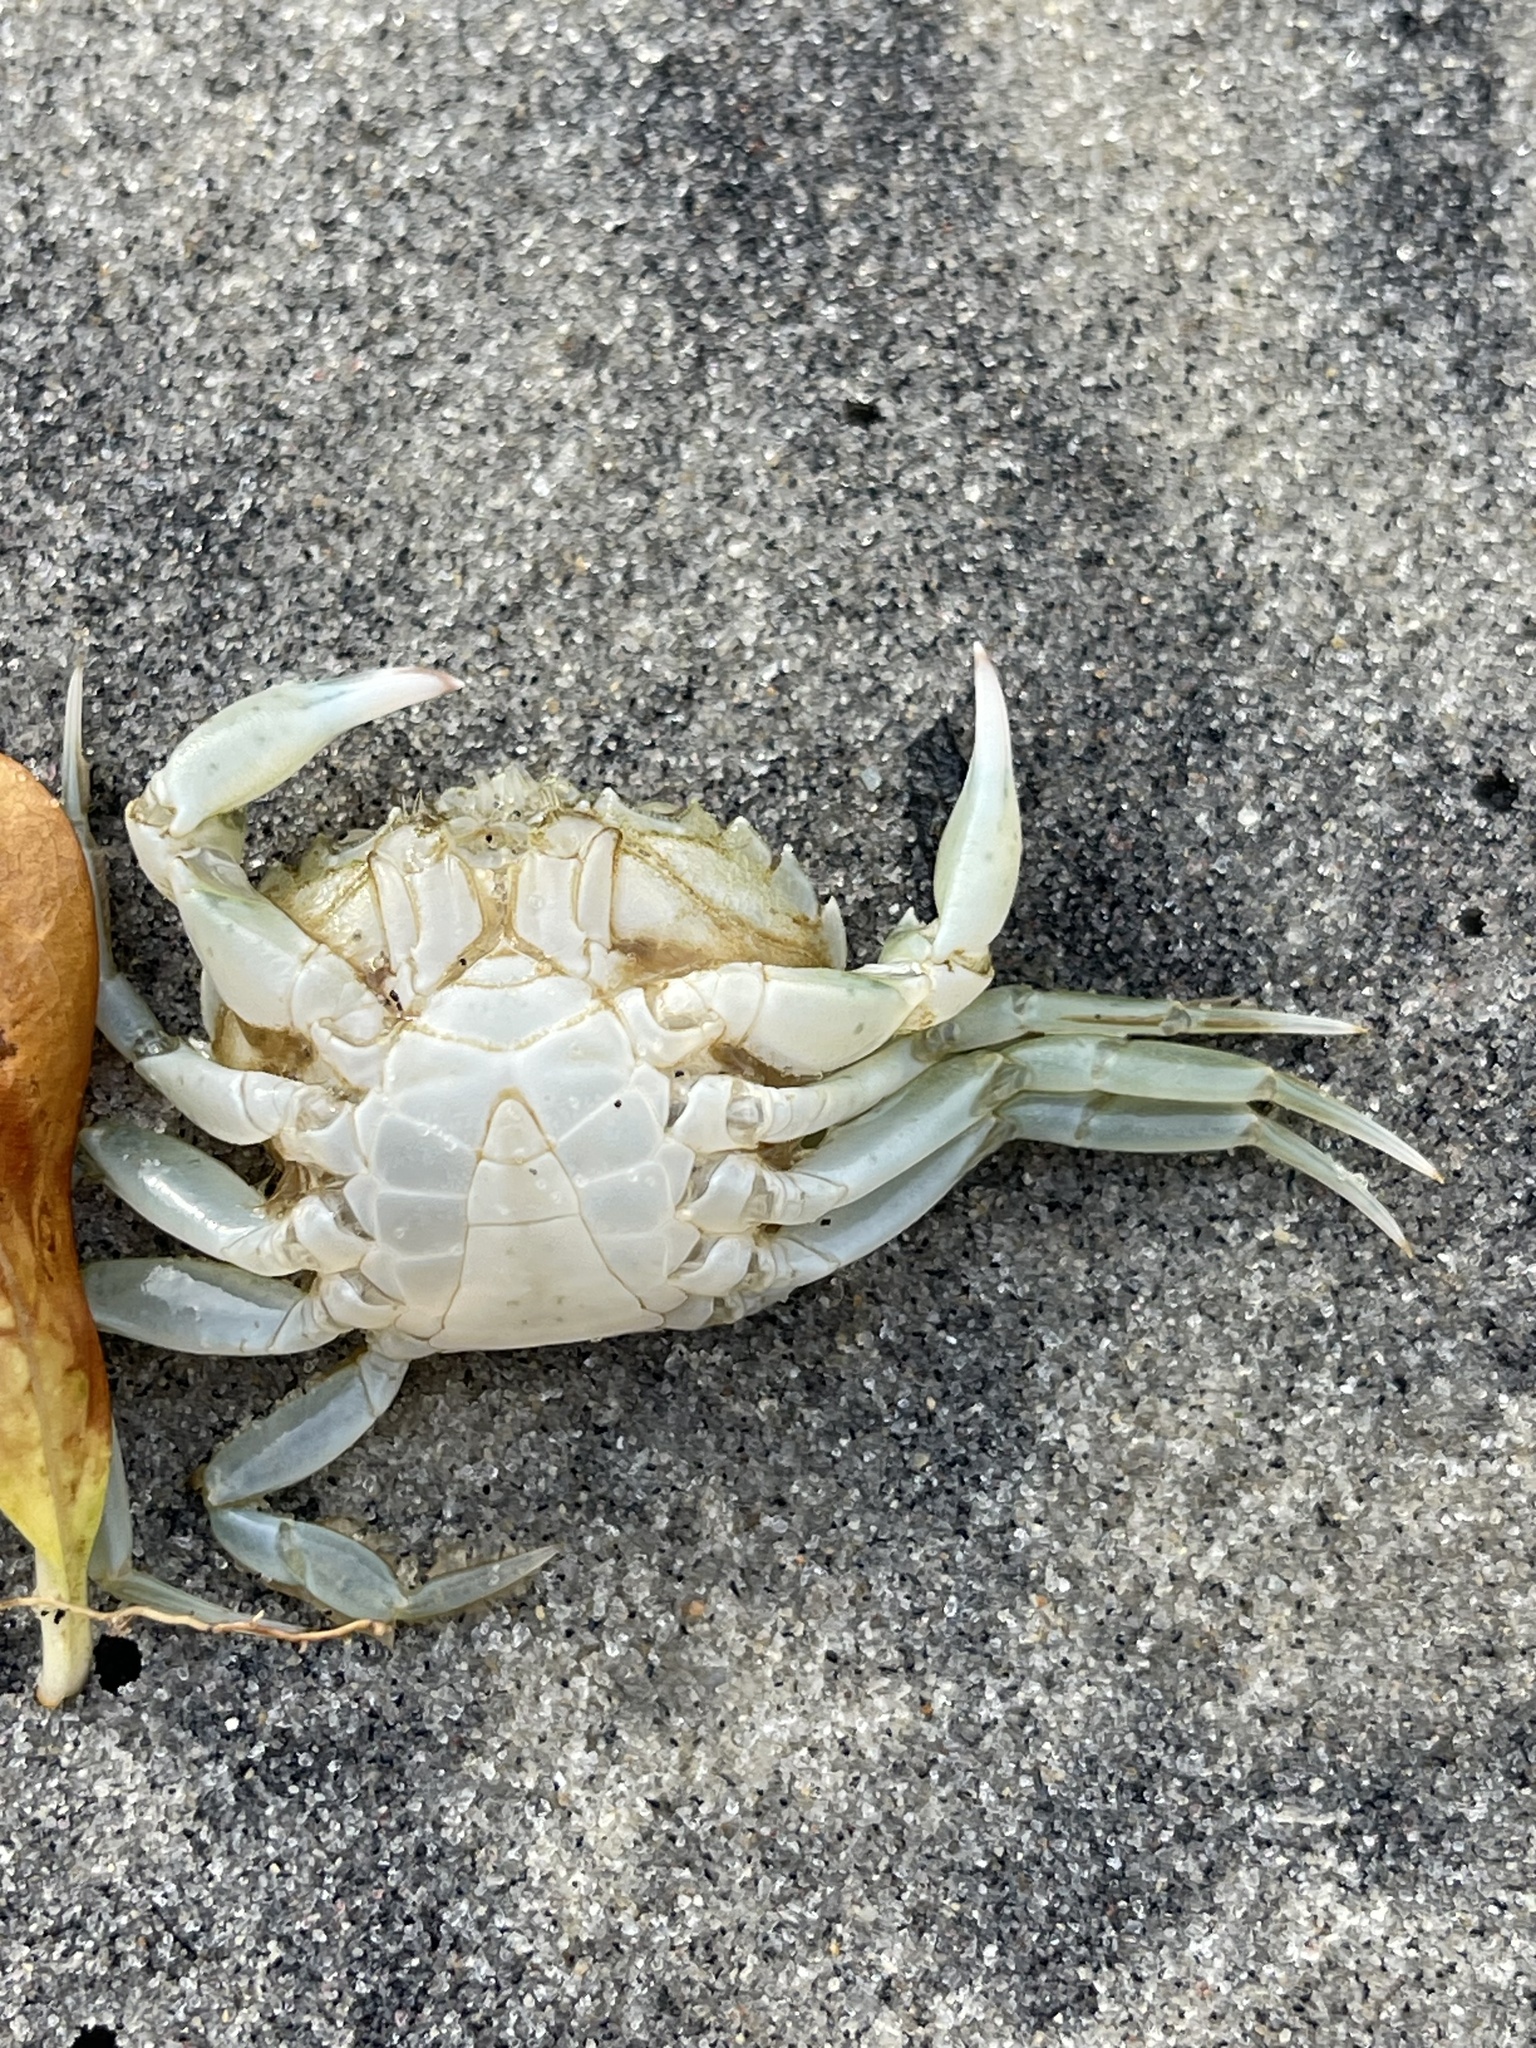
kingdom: Animalia
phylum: Arthropoda
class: Malacostraca
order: Decapoda
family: Carcinidae
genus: Carcinus
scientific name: Carcinus maenas
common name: European green crab
